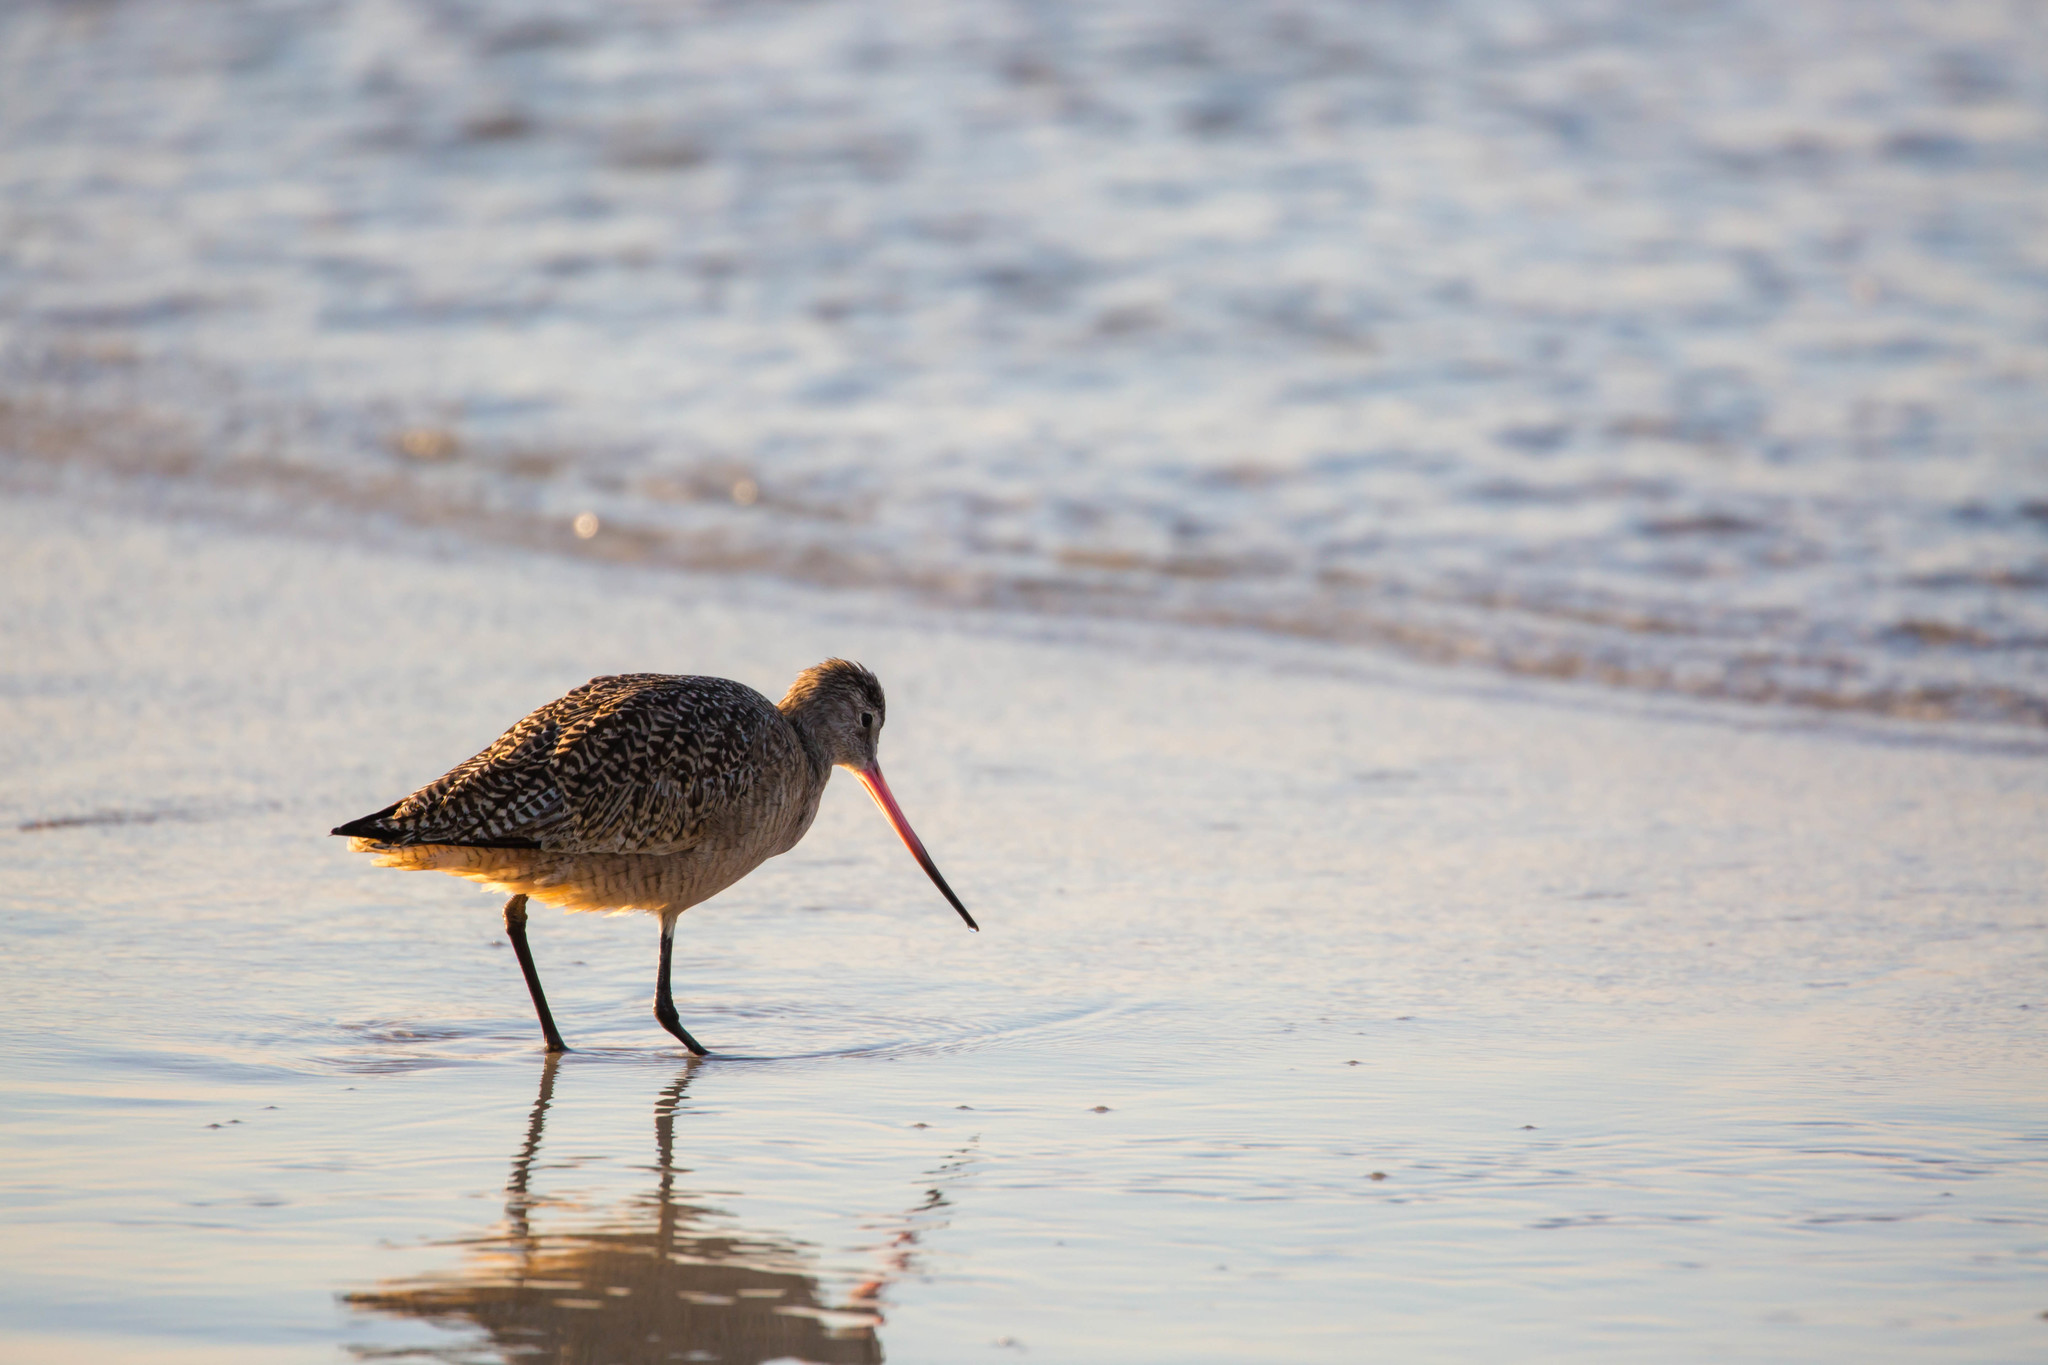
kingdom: Animalia
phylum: Chordata
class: Aves
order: Charadriiformes
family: Scolopacidae
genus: Limosa
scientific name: Limosa fedoa
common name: Marbled godwit
